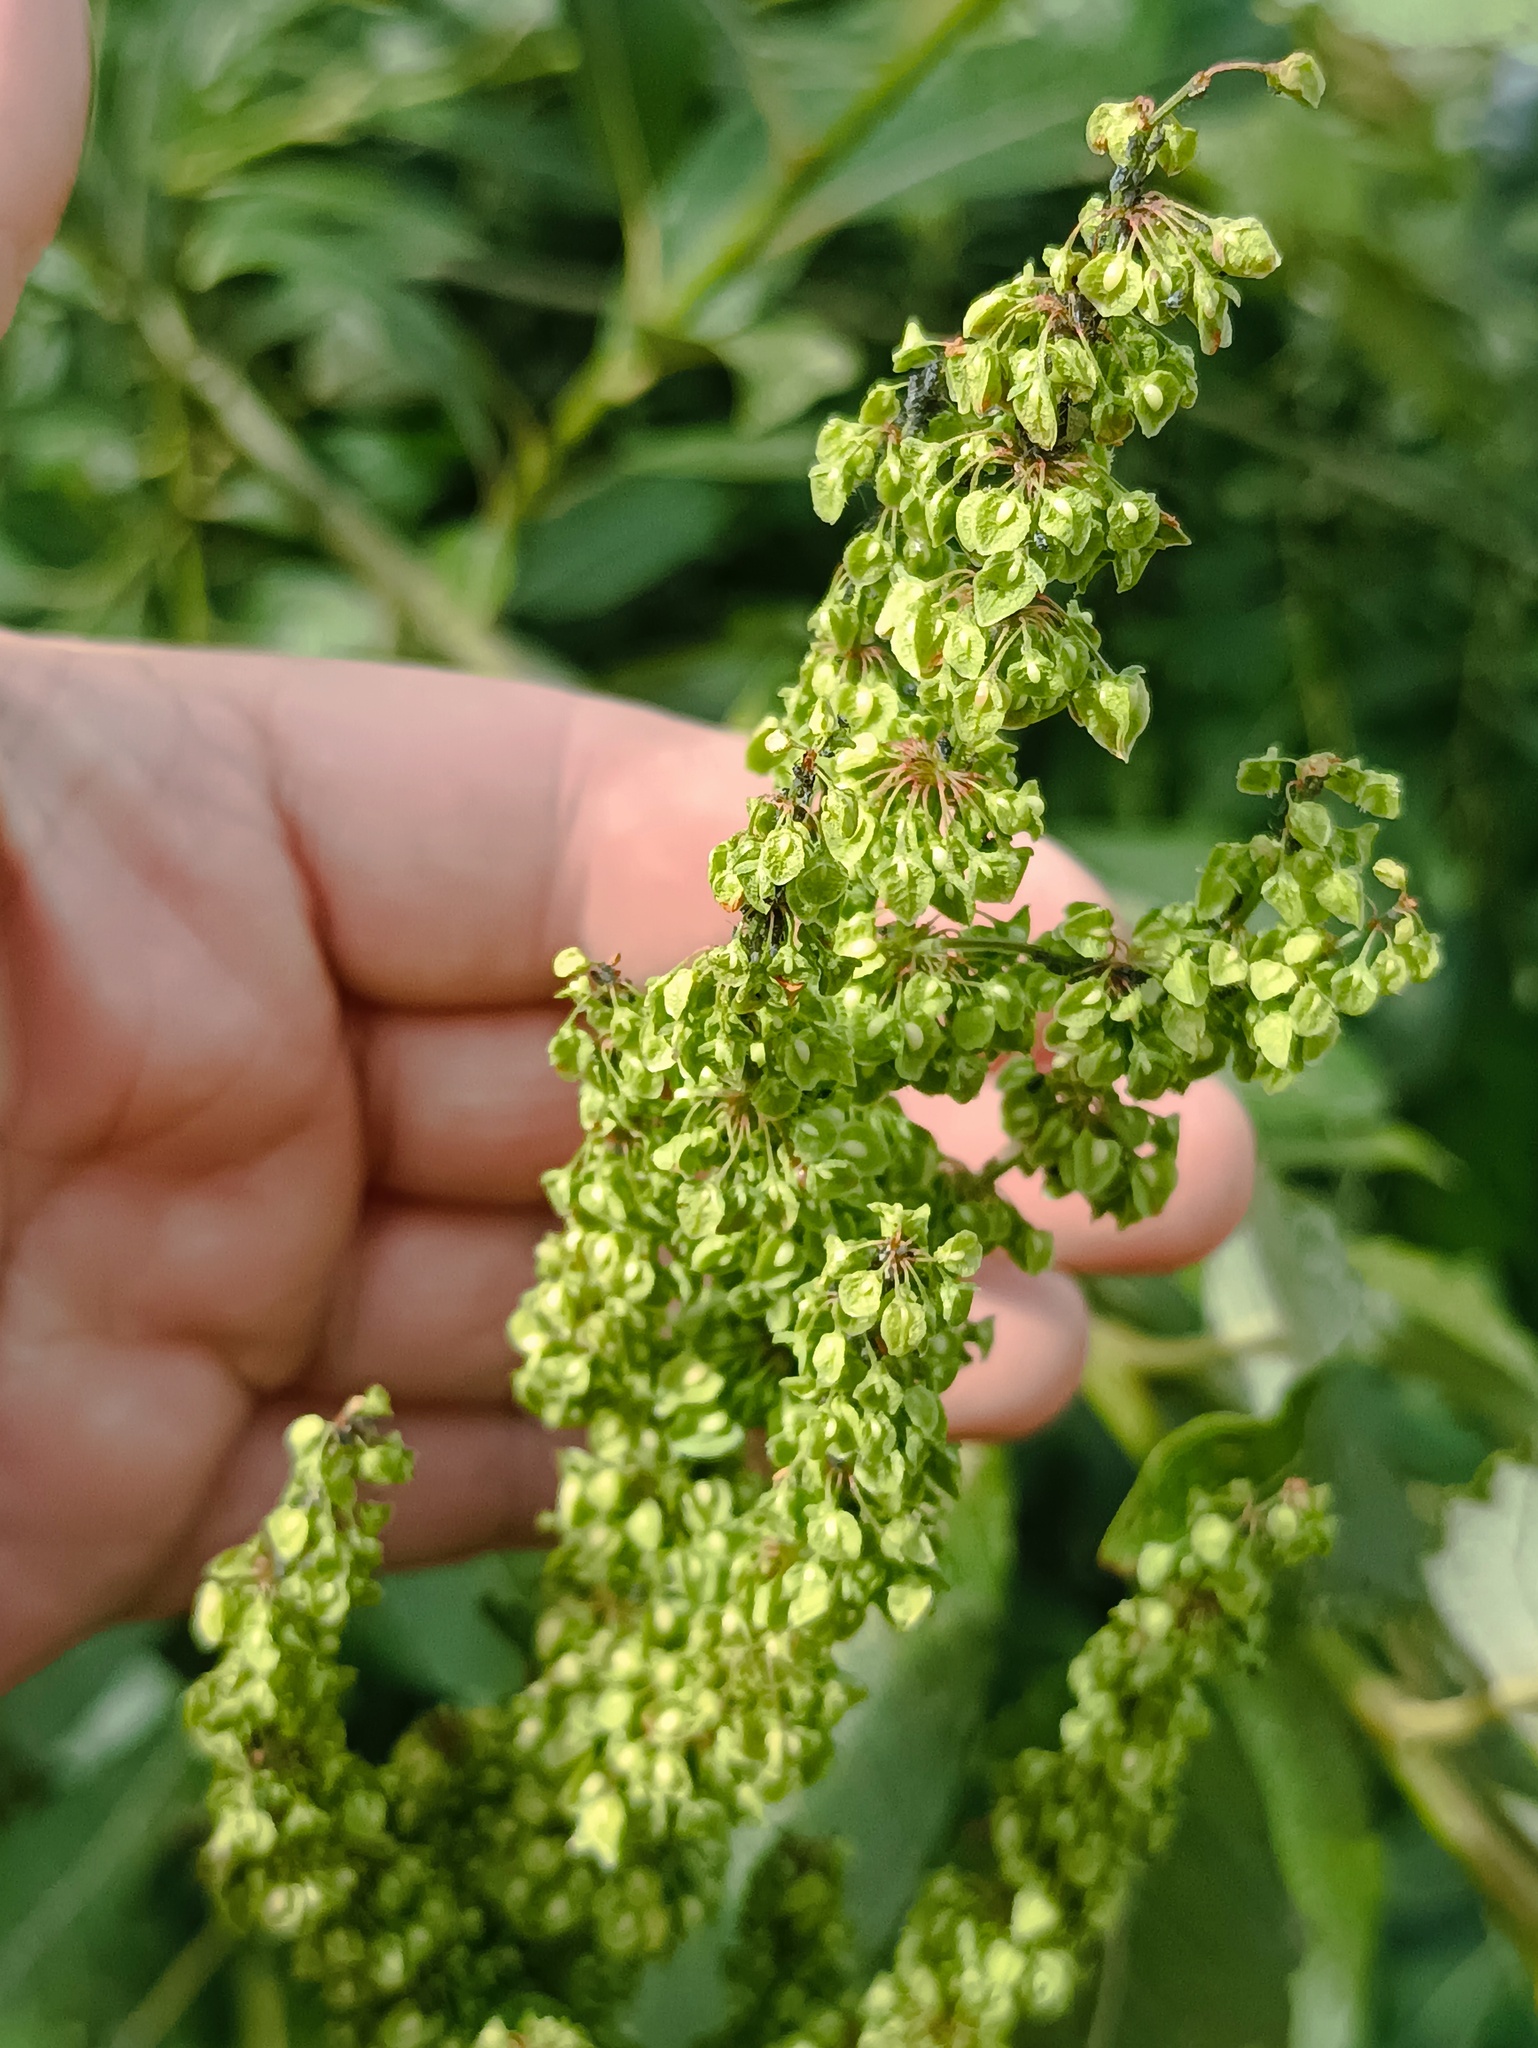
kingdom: Plantae
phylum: Tracheophyta
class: Magnoliopsida
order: Caryophyllales
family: Polygonaceae
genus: Rumex
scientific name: Rumex crispus
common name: Curled dock
